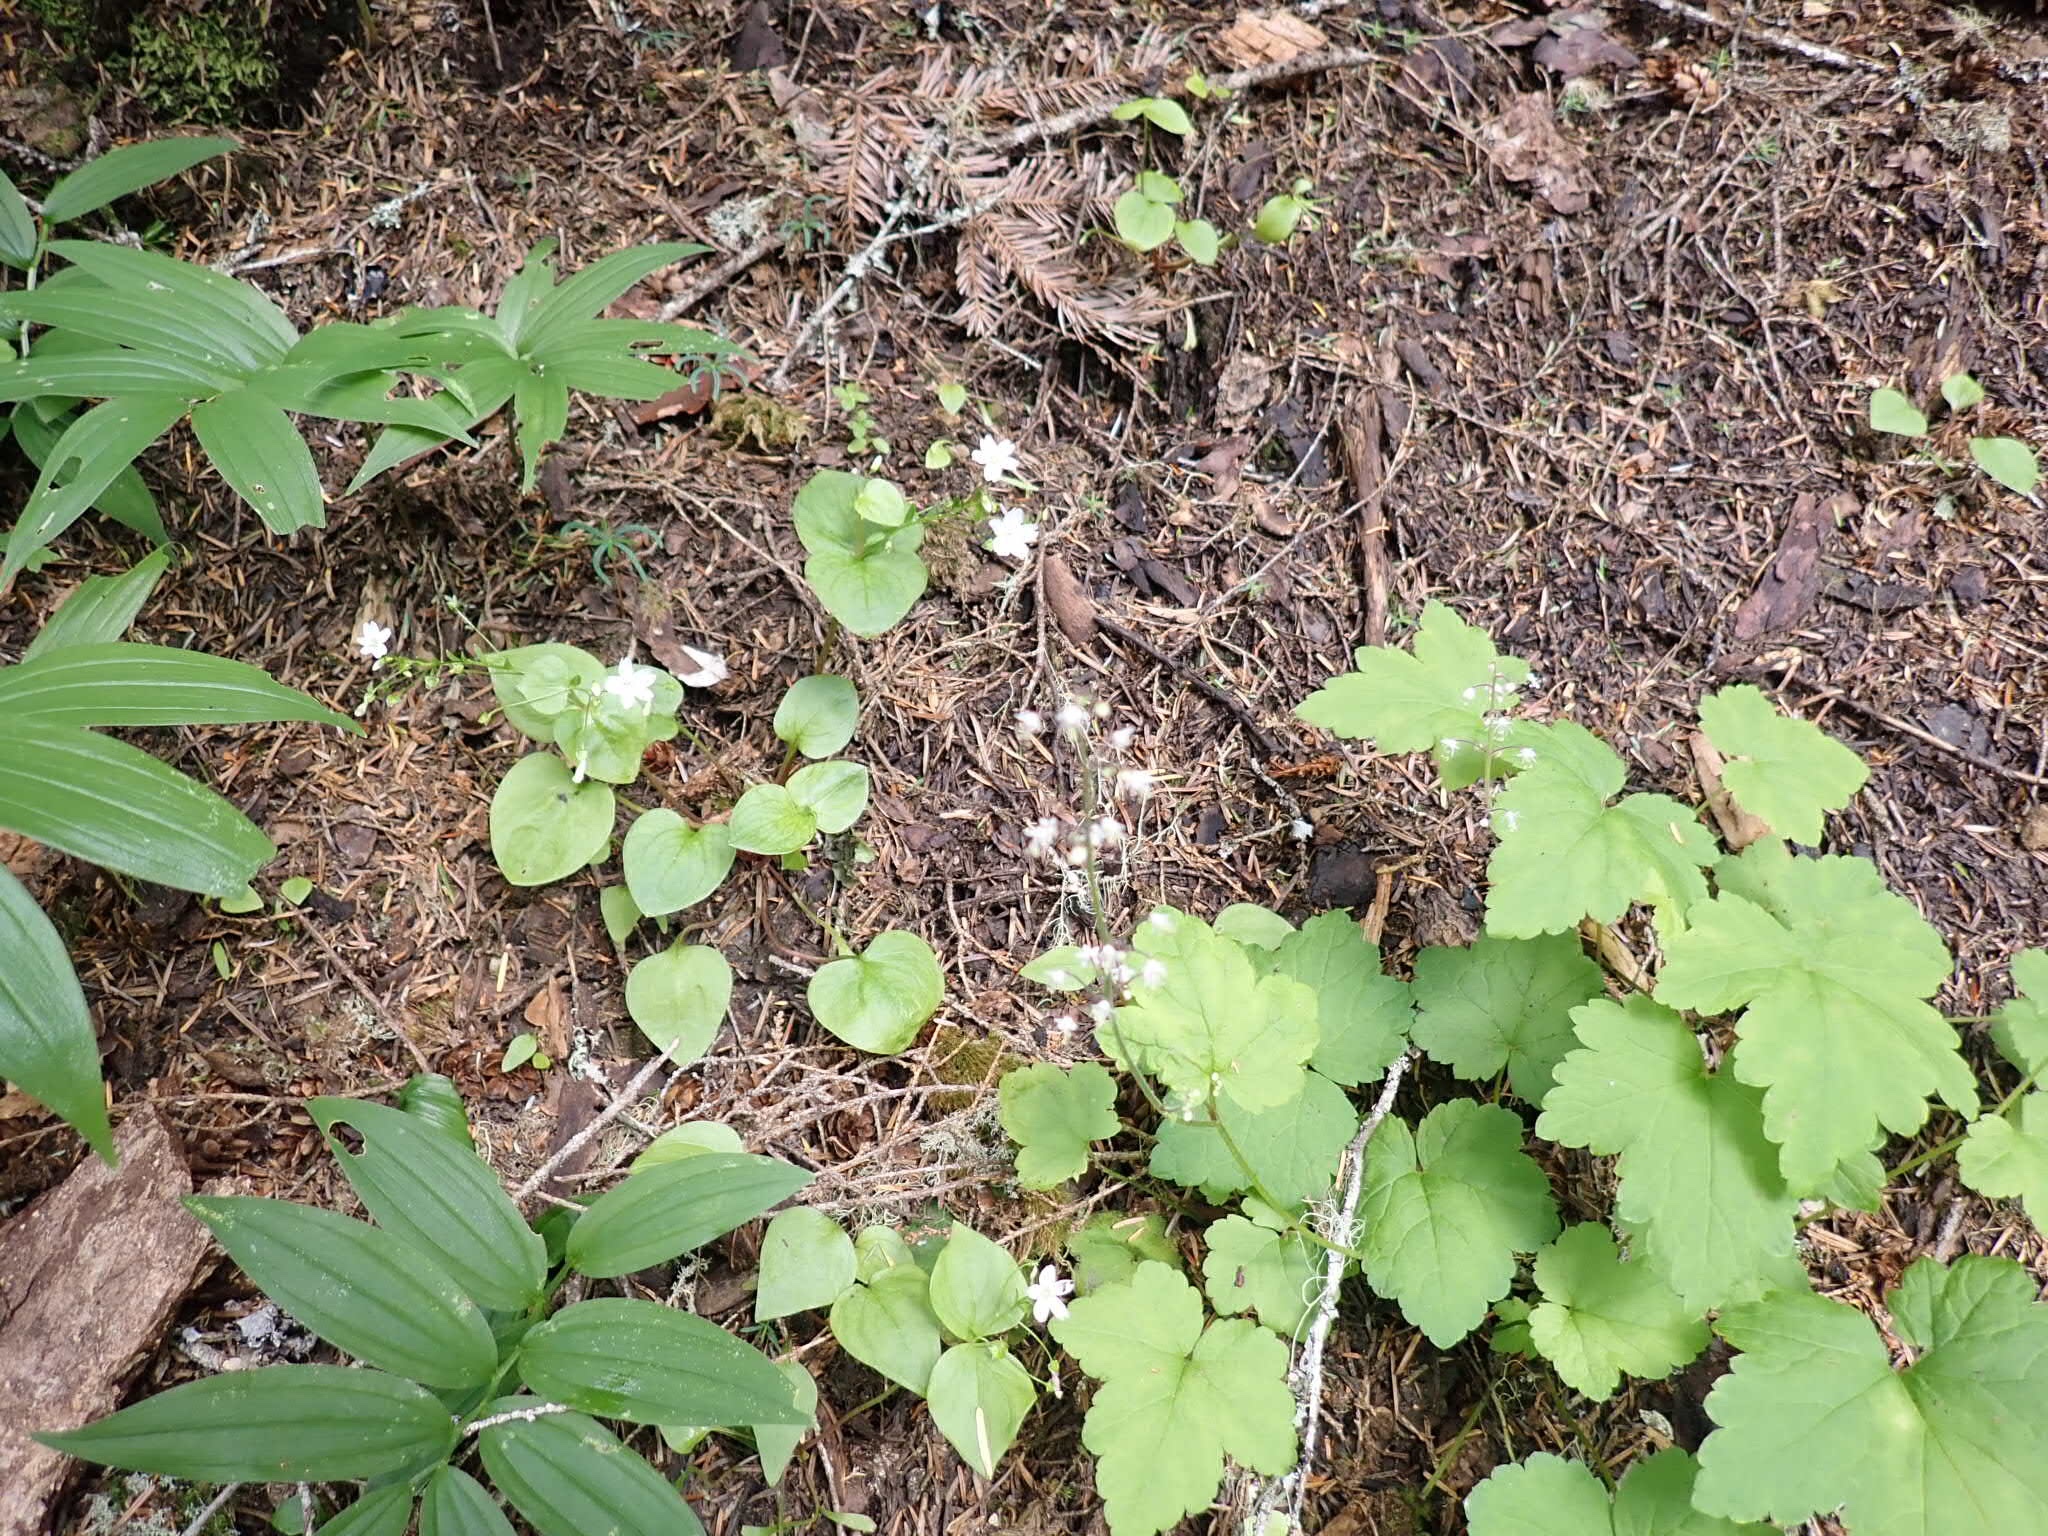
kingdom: Plantae
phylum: Tracheophyta
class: Magnoliopsida
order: Caryophyllales
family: Montiaceae
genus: Claytonia
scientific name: Claytonia sibirica
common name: Pink purslane
